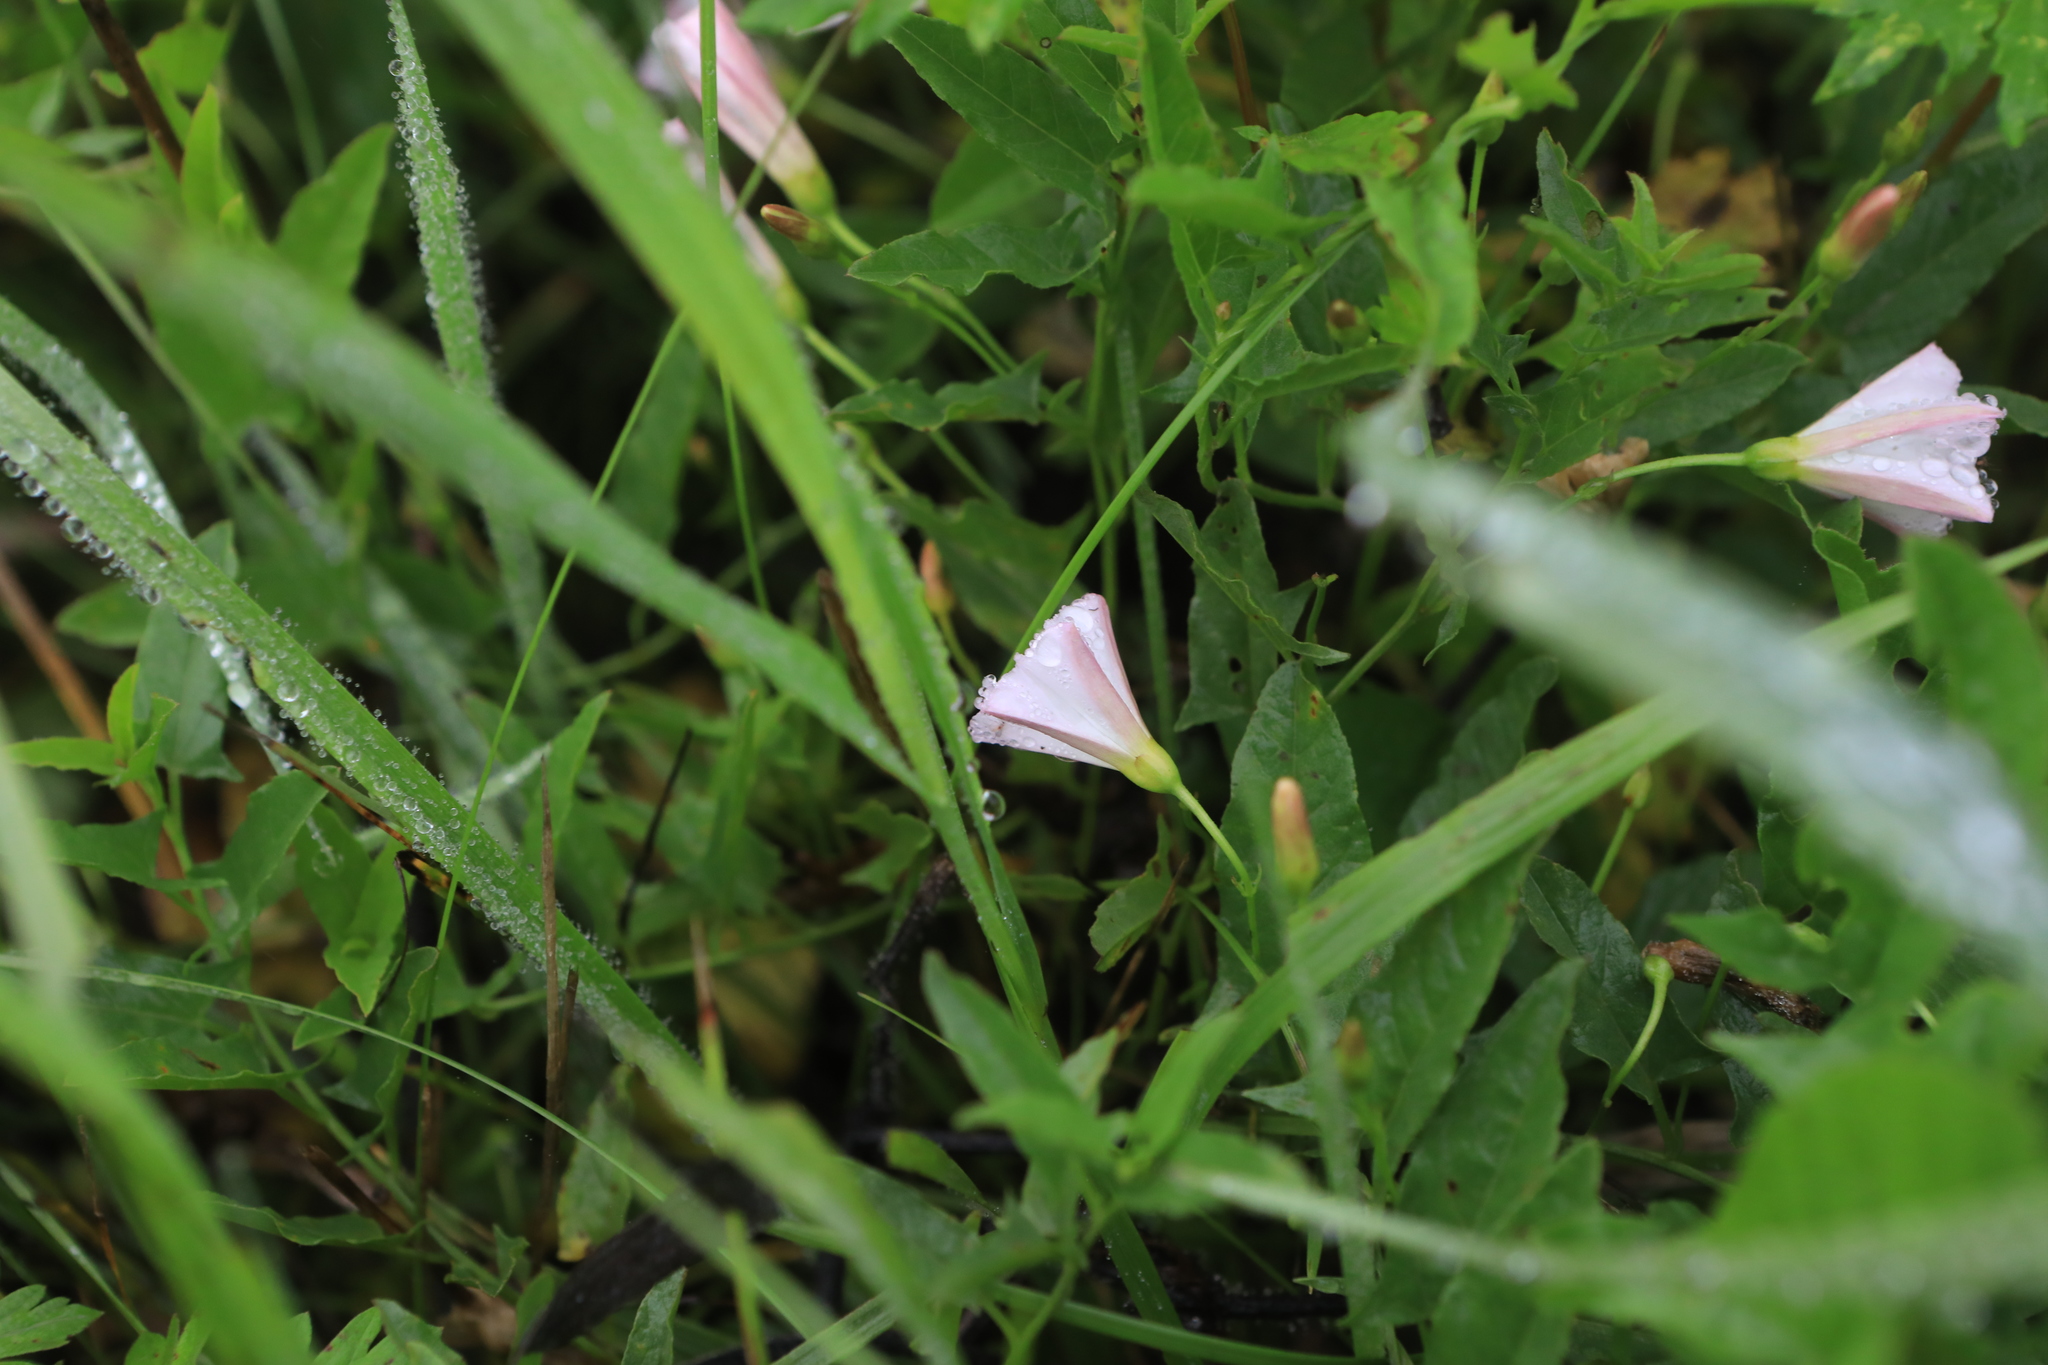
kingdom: Plantae
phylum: Tracheophyta
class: Magnoliopsida
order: Solanales
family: Convolvulaceae
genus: Convolvulus
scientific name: Convolvulus arvensis
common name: Field bindweed
